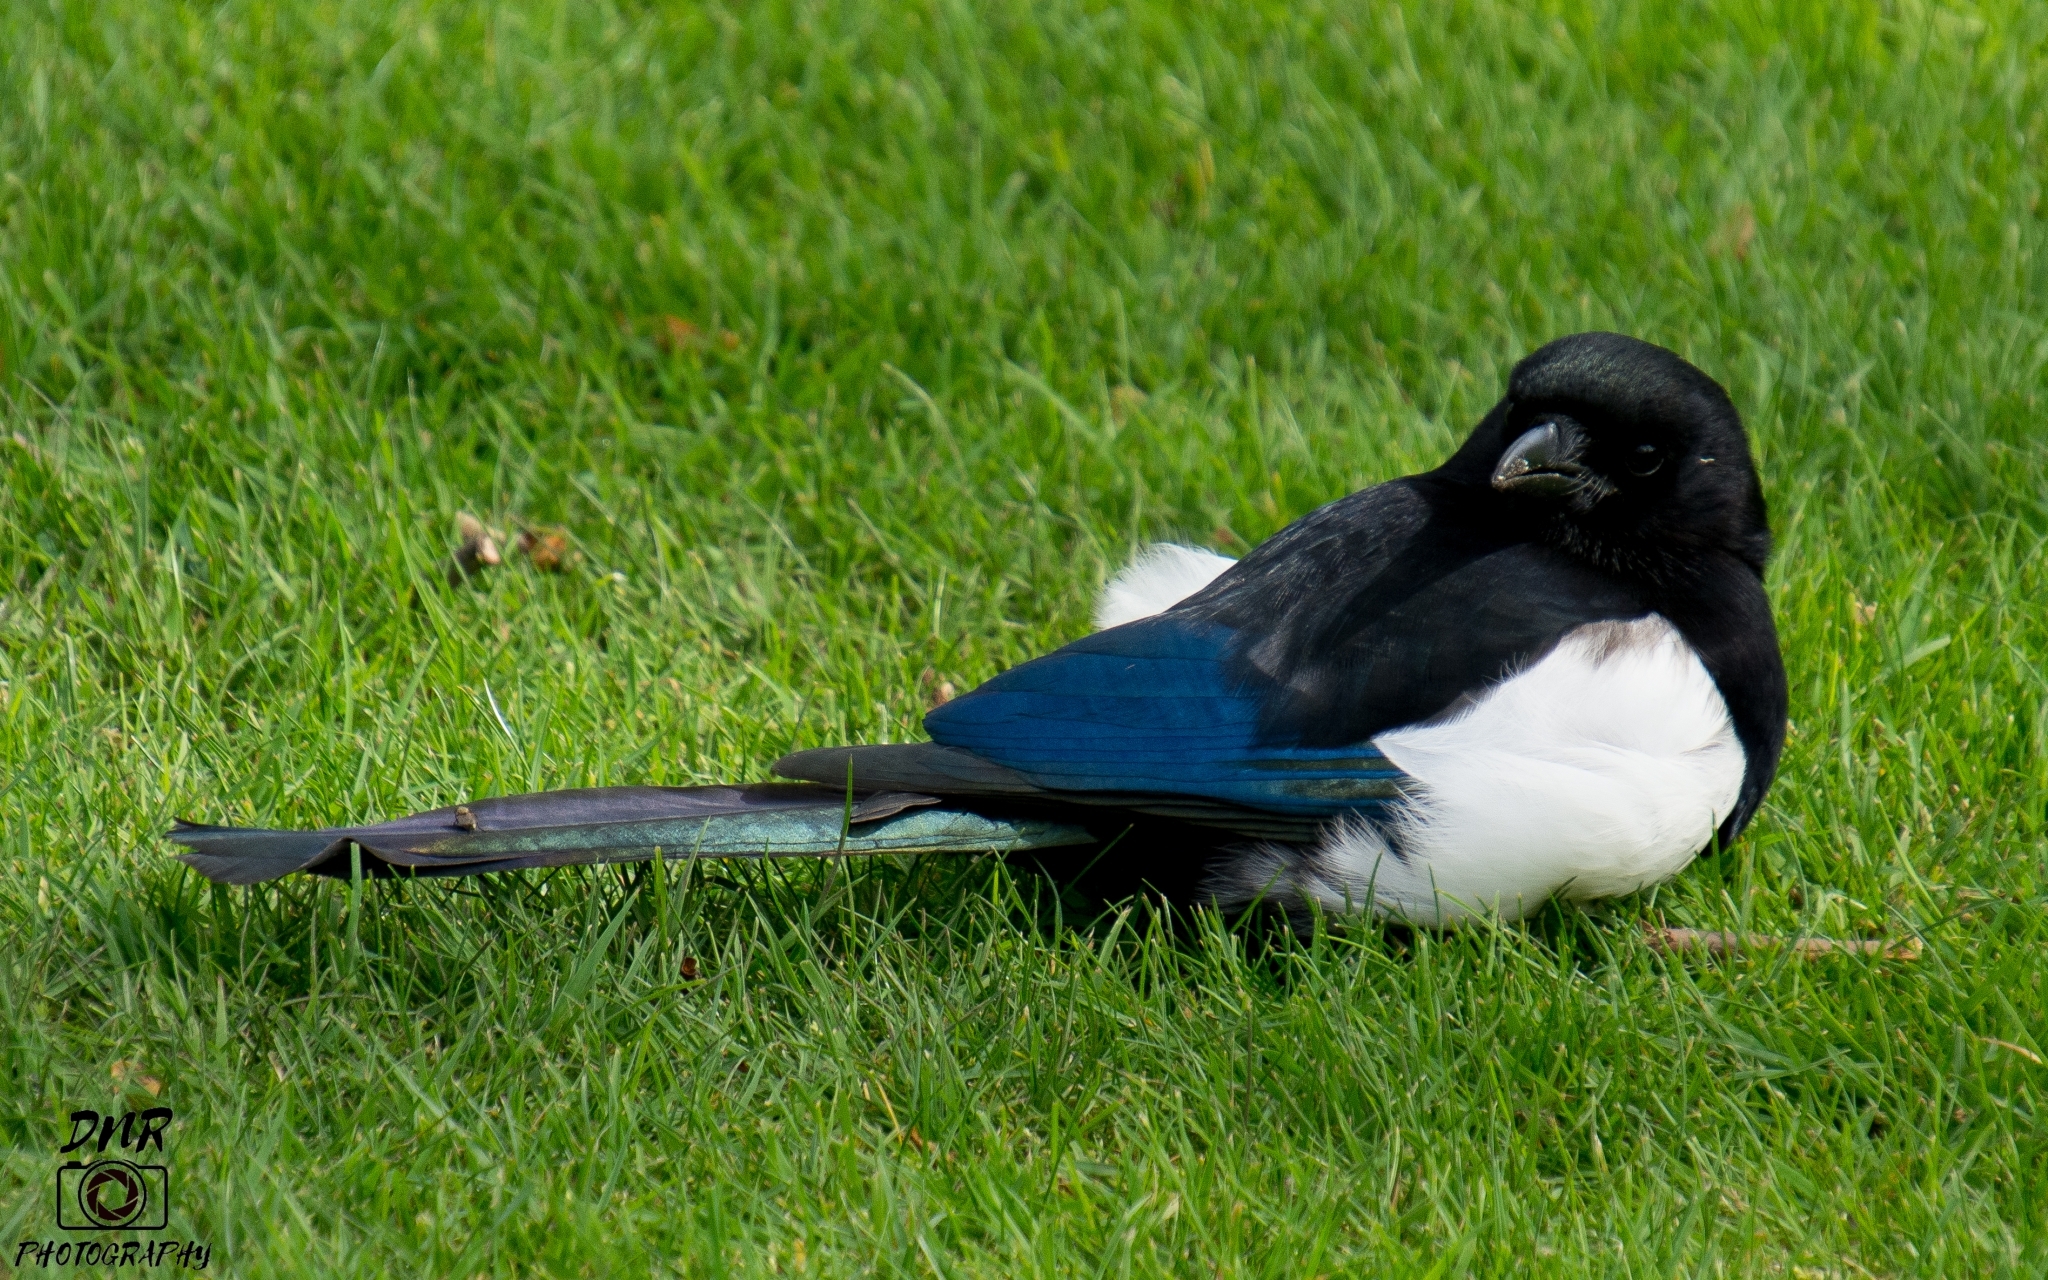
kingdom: Animalia
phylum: Chordata
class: Aves
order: Passeriformes
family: Corvidae
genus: Pica
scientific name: Pica pica
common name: Eurasian magpie
